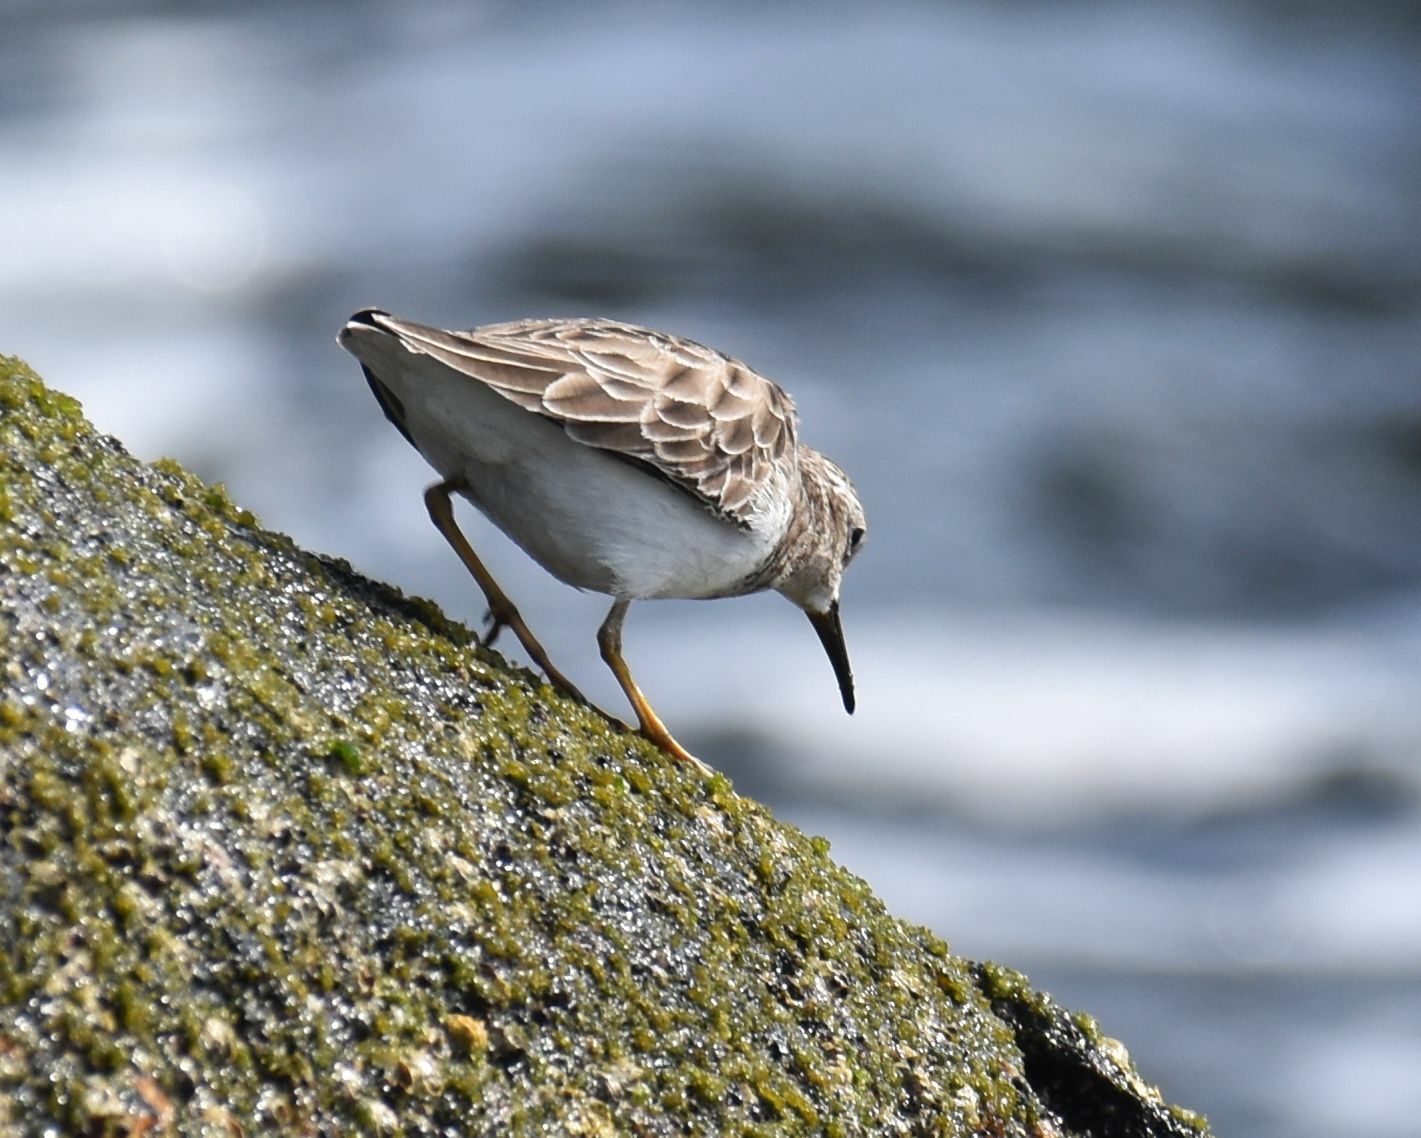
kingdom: Animalia
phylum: Chordata
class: Aves
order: Charadriiformes
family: Scolopacidae
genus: Calidris
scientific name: Calidris minutilla
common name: Least sandpiper
